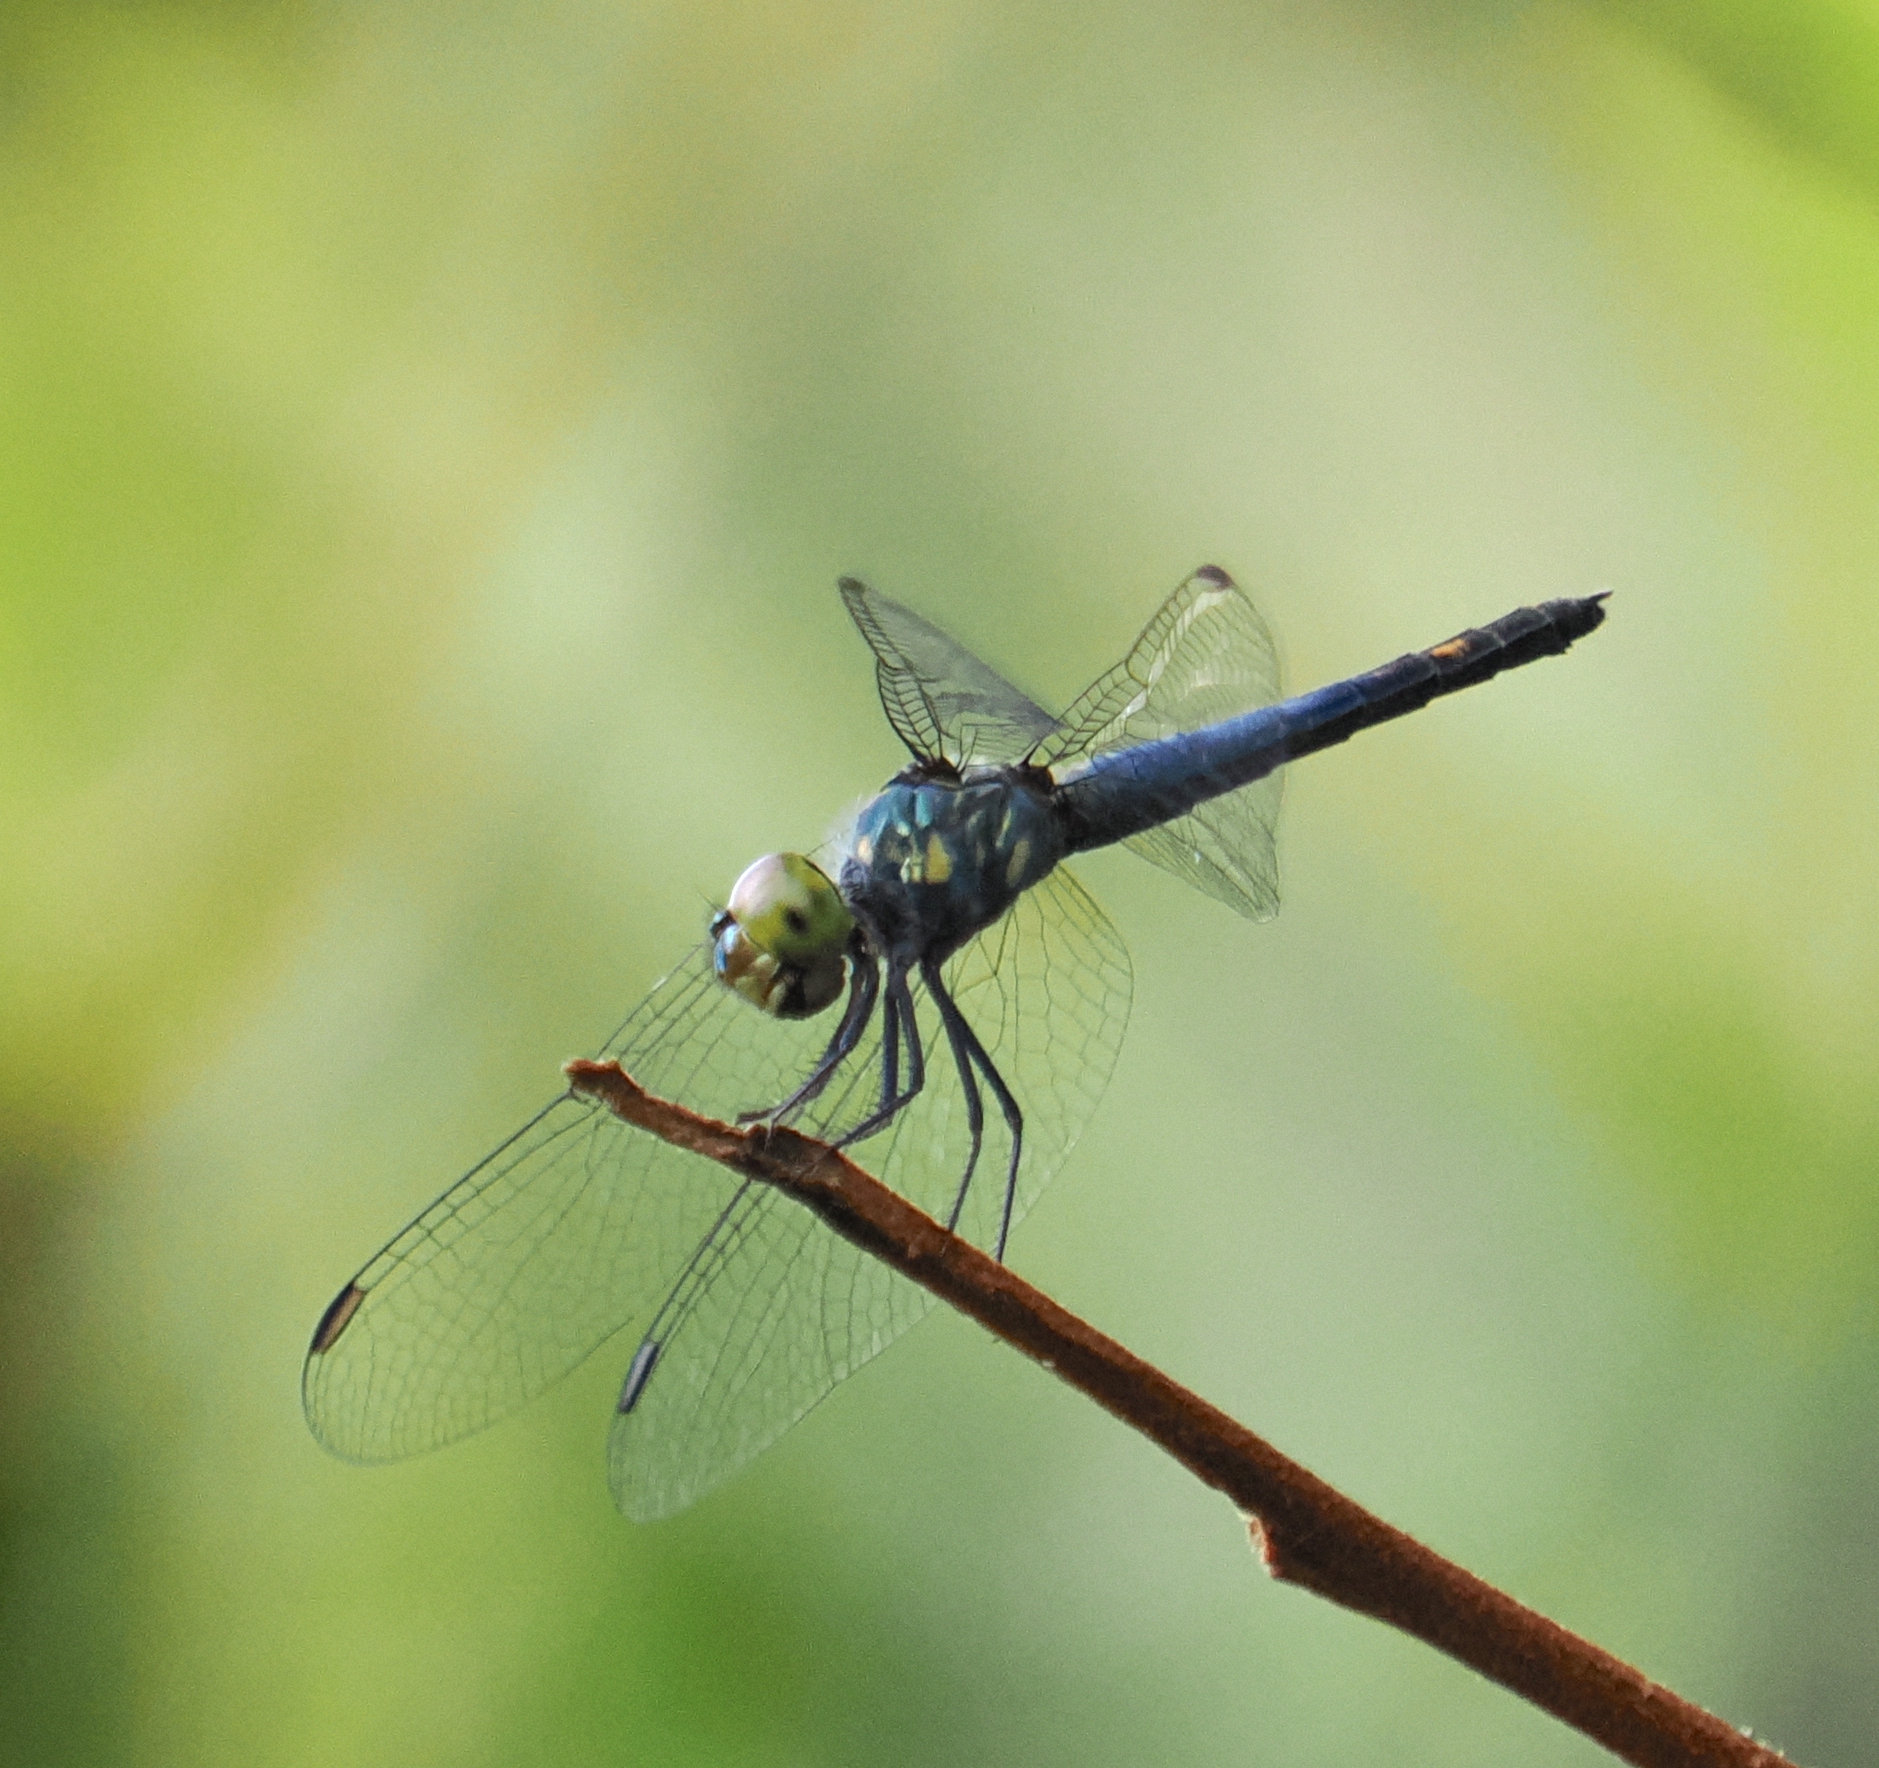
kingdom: Animalia
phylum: Arthropoda
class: Insecta
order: Odonata
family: Libellulidae
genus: Brachydiplax
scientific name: Brachydiplax sobrina
